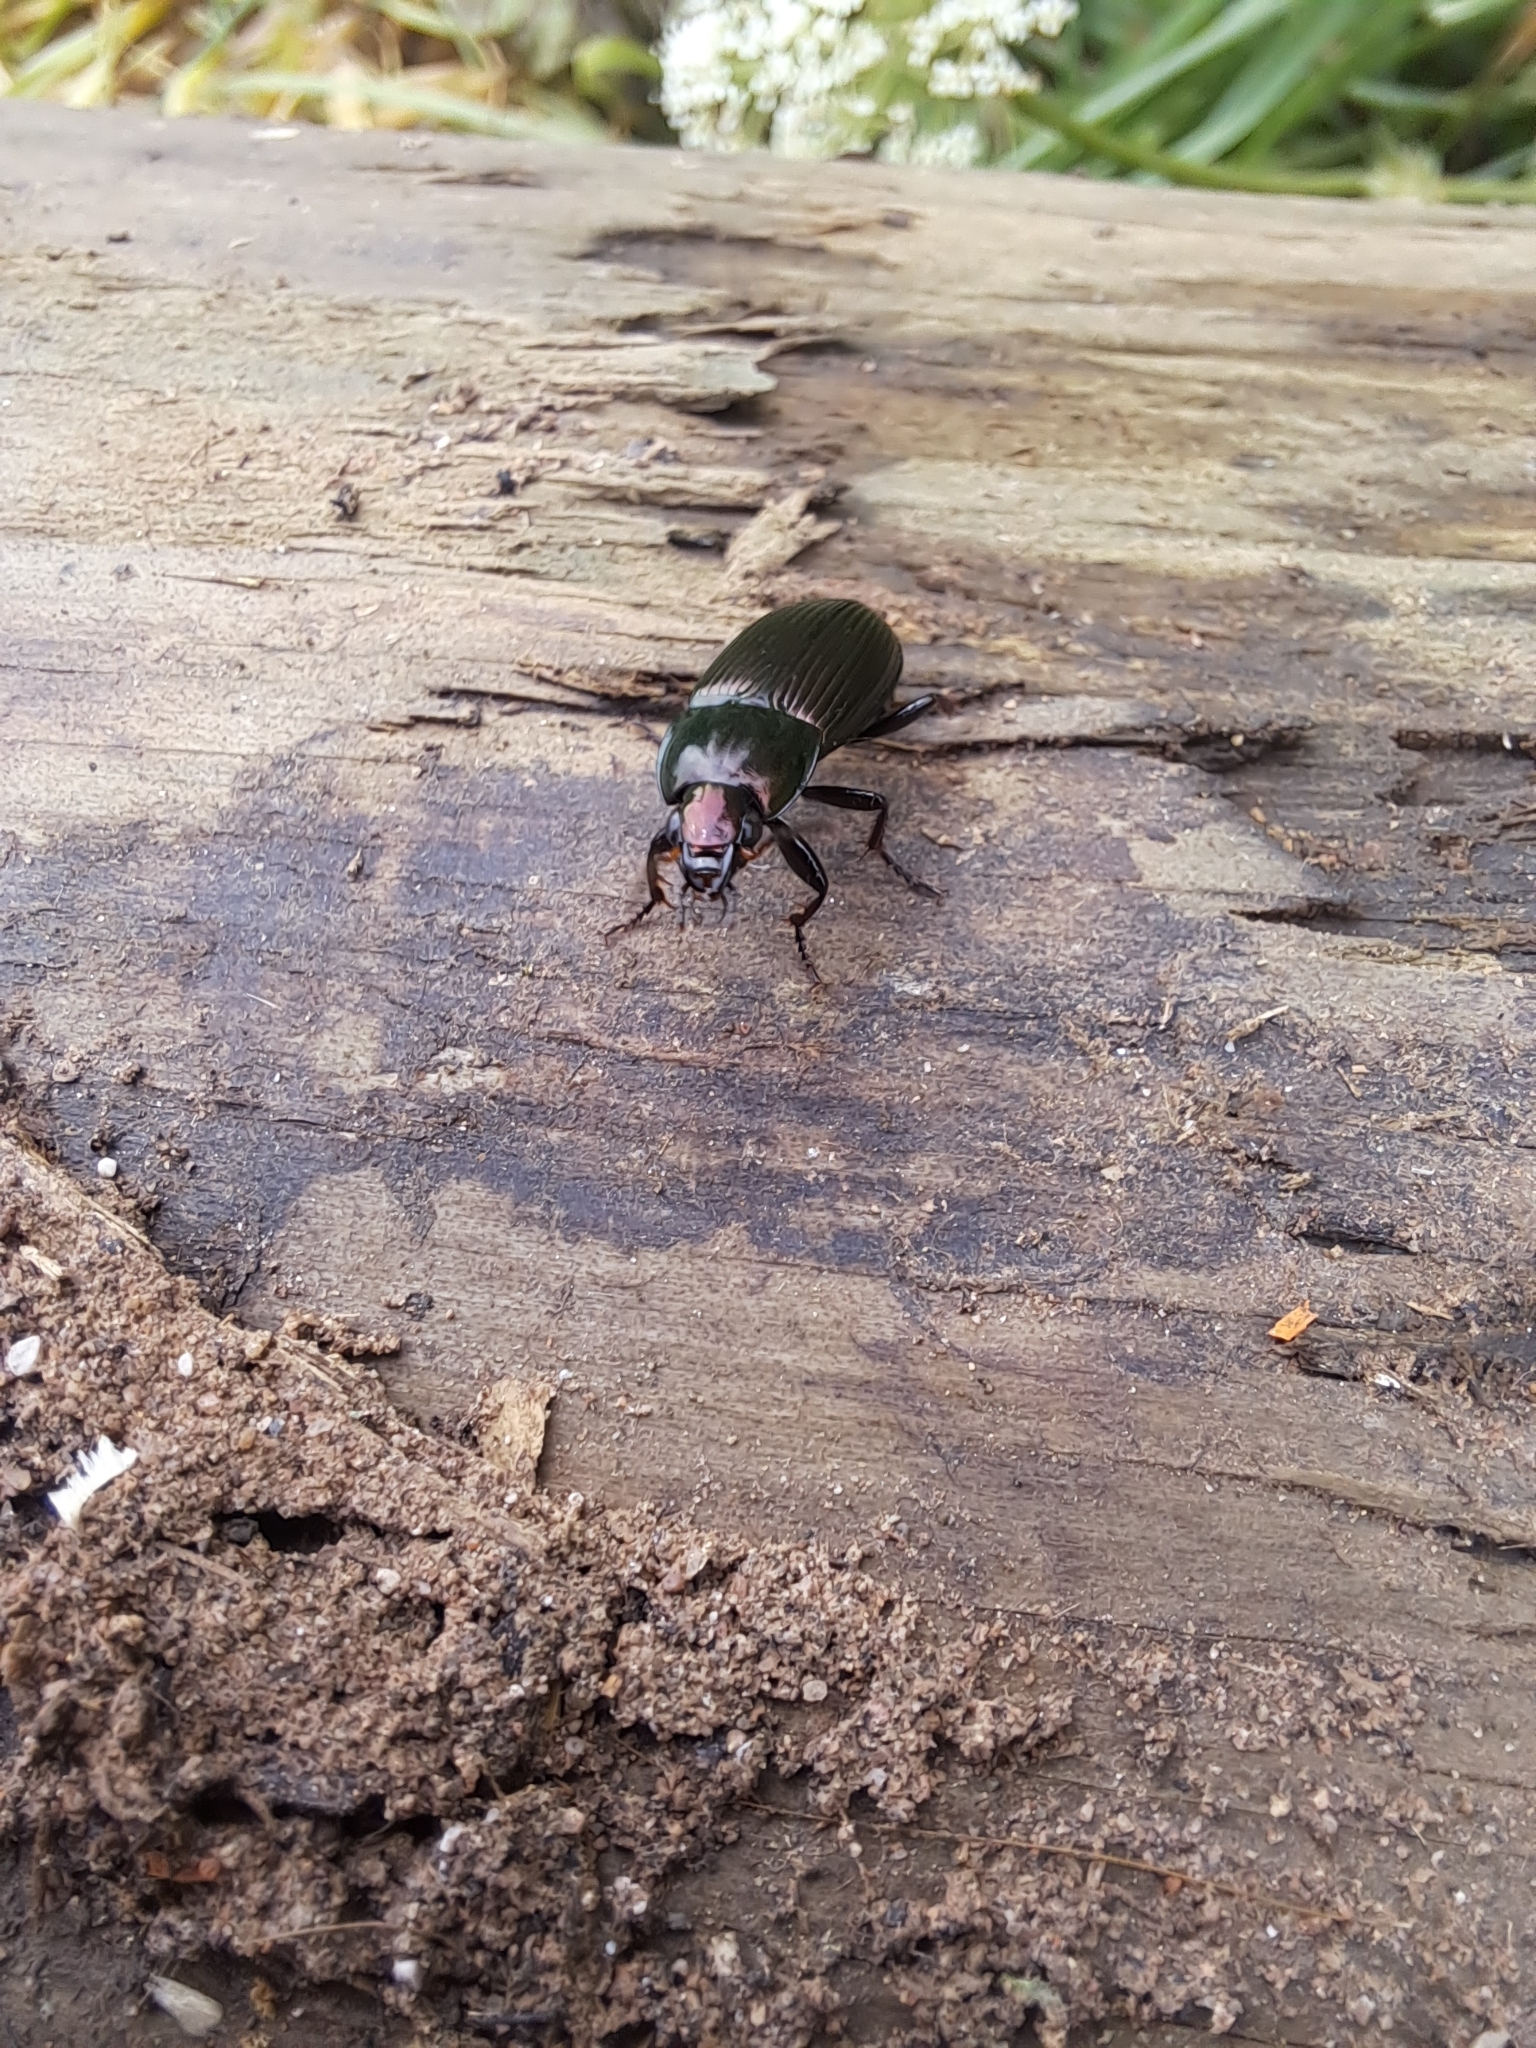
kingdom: Animalia
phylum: Arthropoda
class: Insecta
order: Coleoptera
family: Carabidae
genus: Poecilus
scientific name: Poecilus lucublandus
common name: Woodland ground beetle
